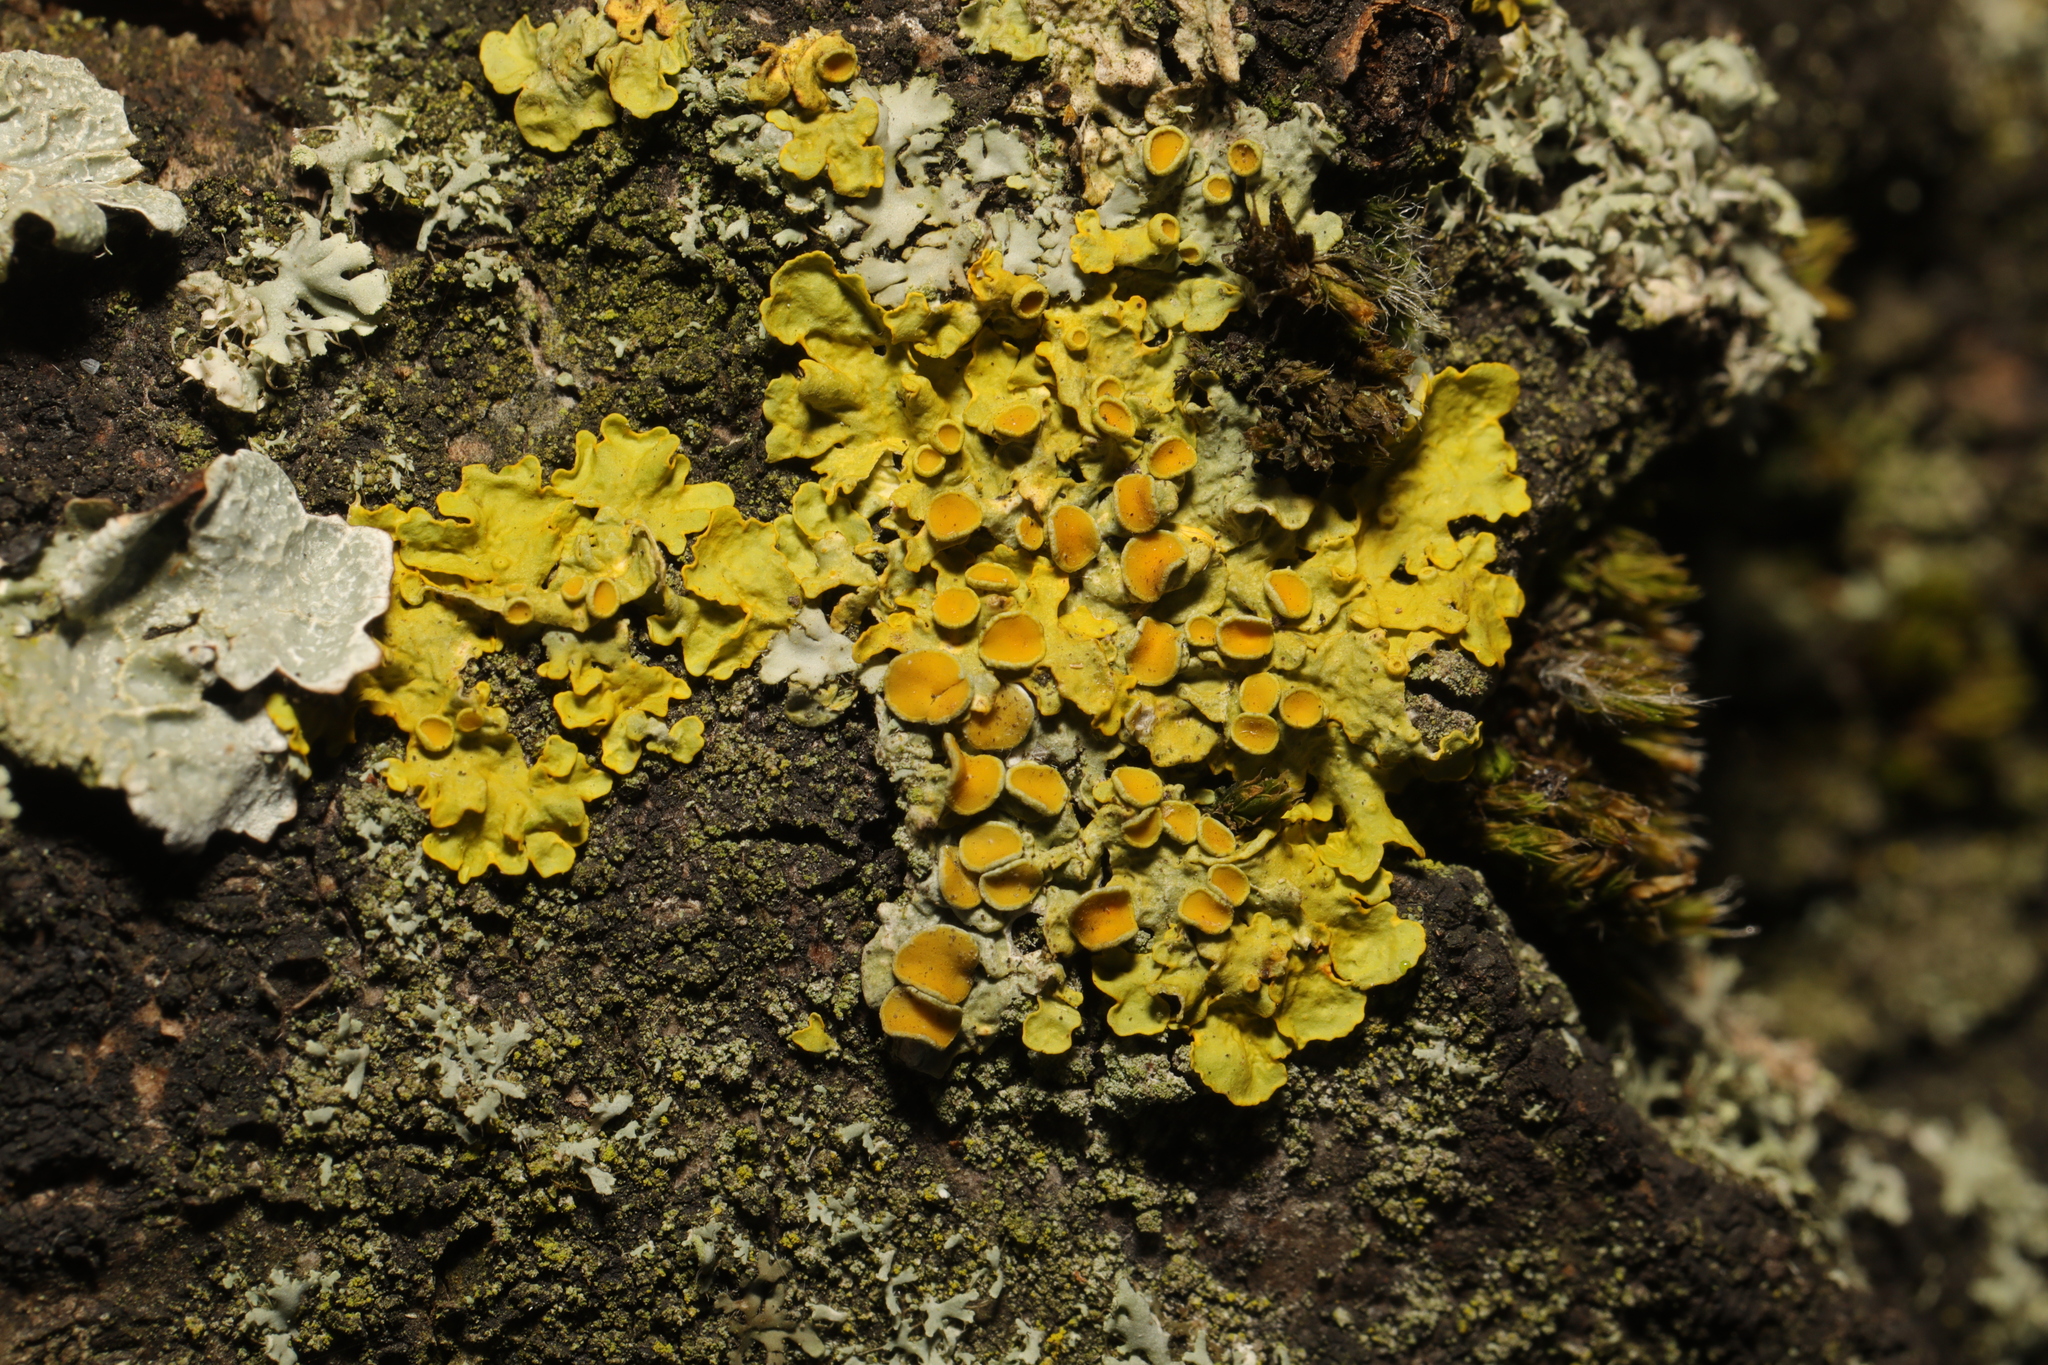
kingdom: Fungi
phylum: Ascomycota
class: Lecanoromycetes
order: Teloschistales
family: Teloschistaceae
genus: Xanthoria
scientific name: Xanthoria parietina
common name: Common orange lichen
